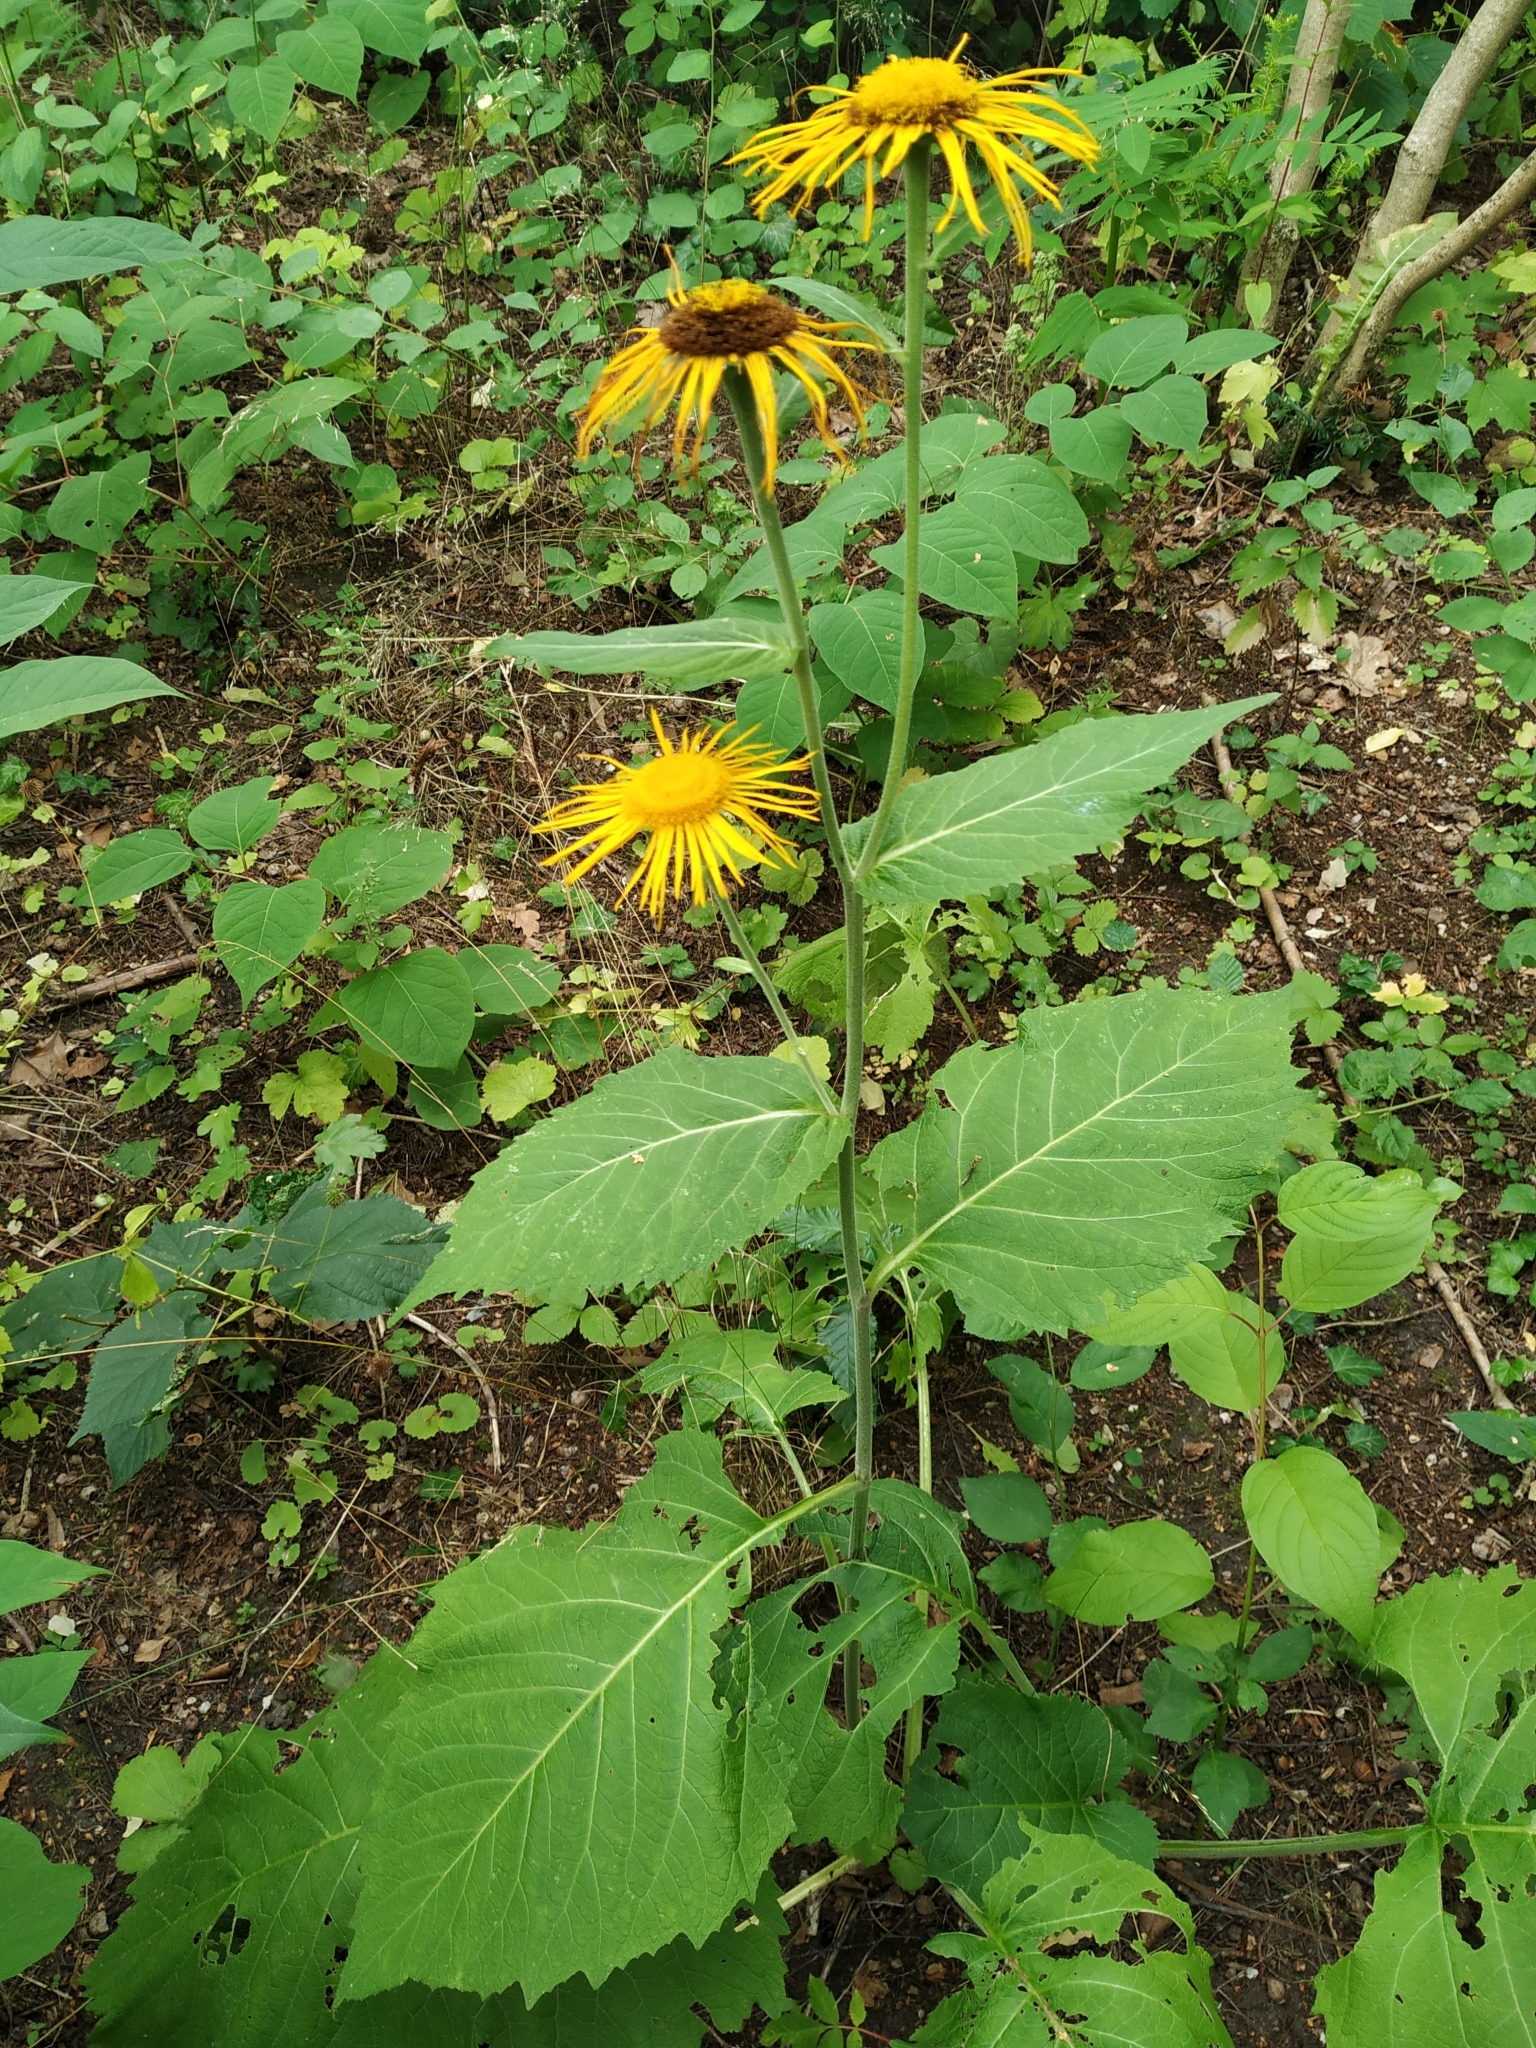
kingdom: Plantae
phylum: Tracheophyta
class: Magnoliopsida
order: Asterales
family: Asteraceae
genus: Telekia
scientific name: Telekia speciosa
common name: Yellow oxeye
